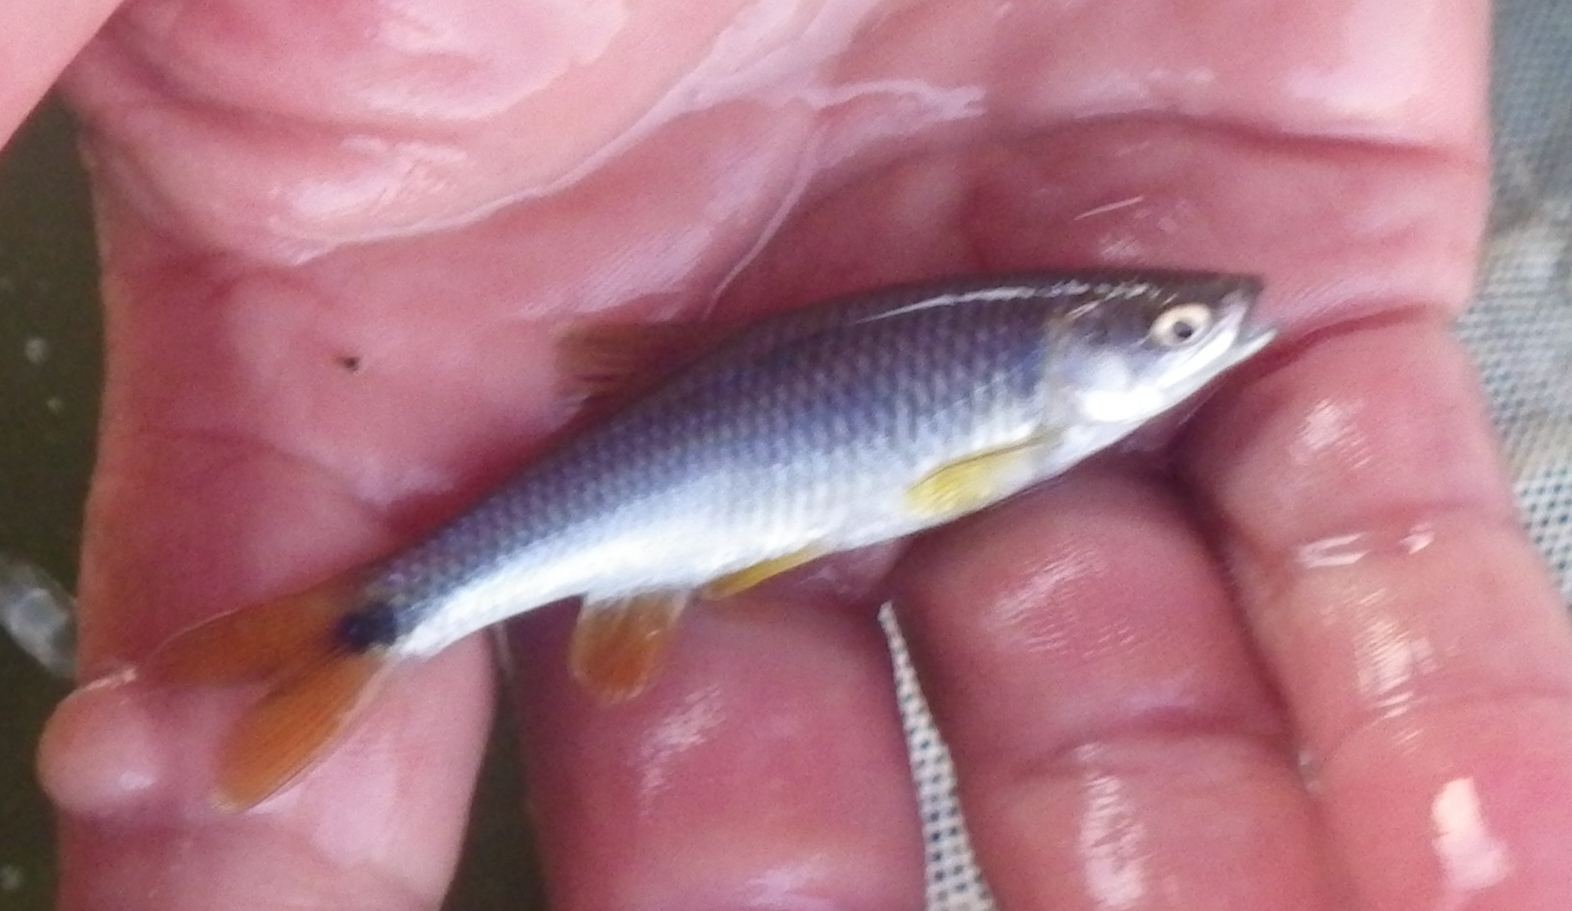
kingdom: Animalia
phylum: Chordata
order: Cypriniformes
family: Cyprinidae
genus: Cyprinella
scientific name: Cyprinella venusta
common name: Blacktail shiner
